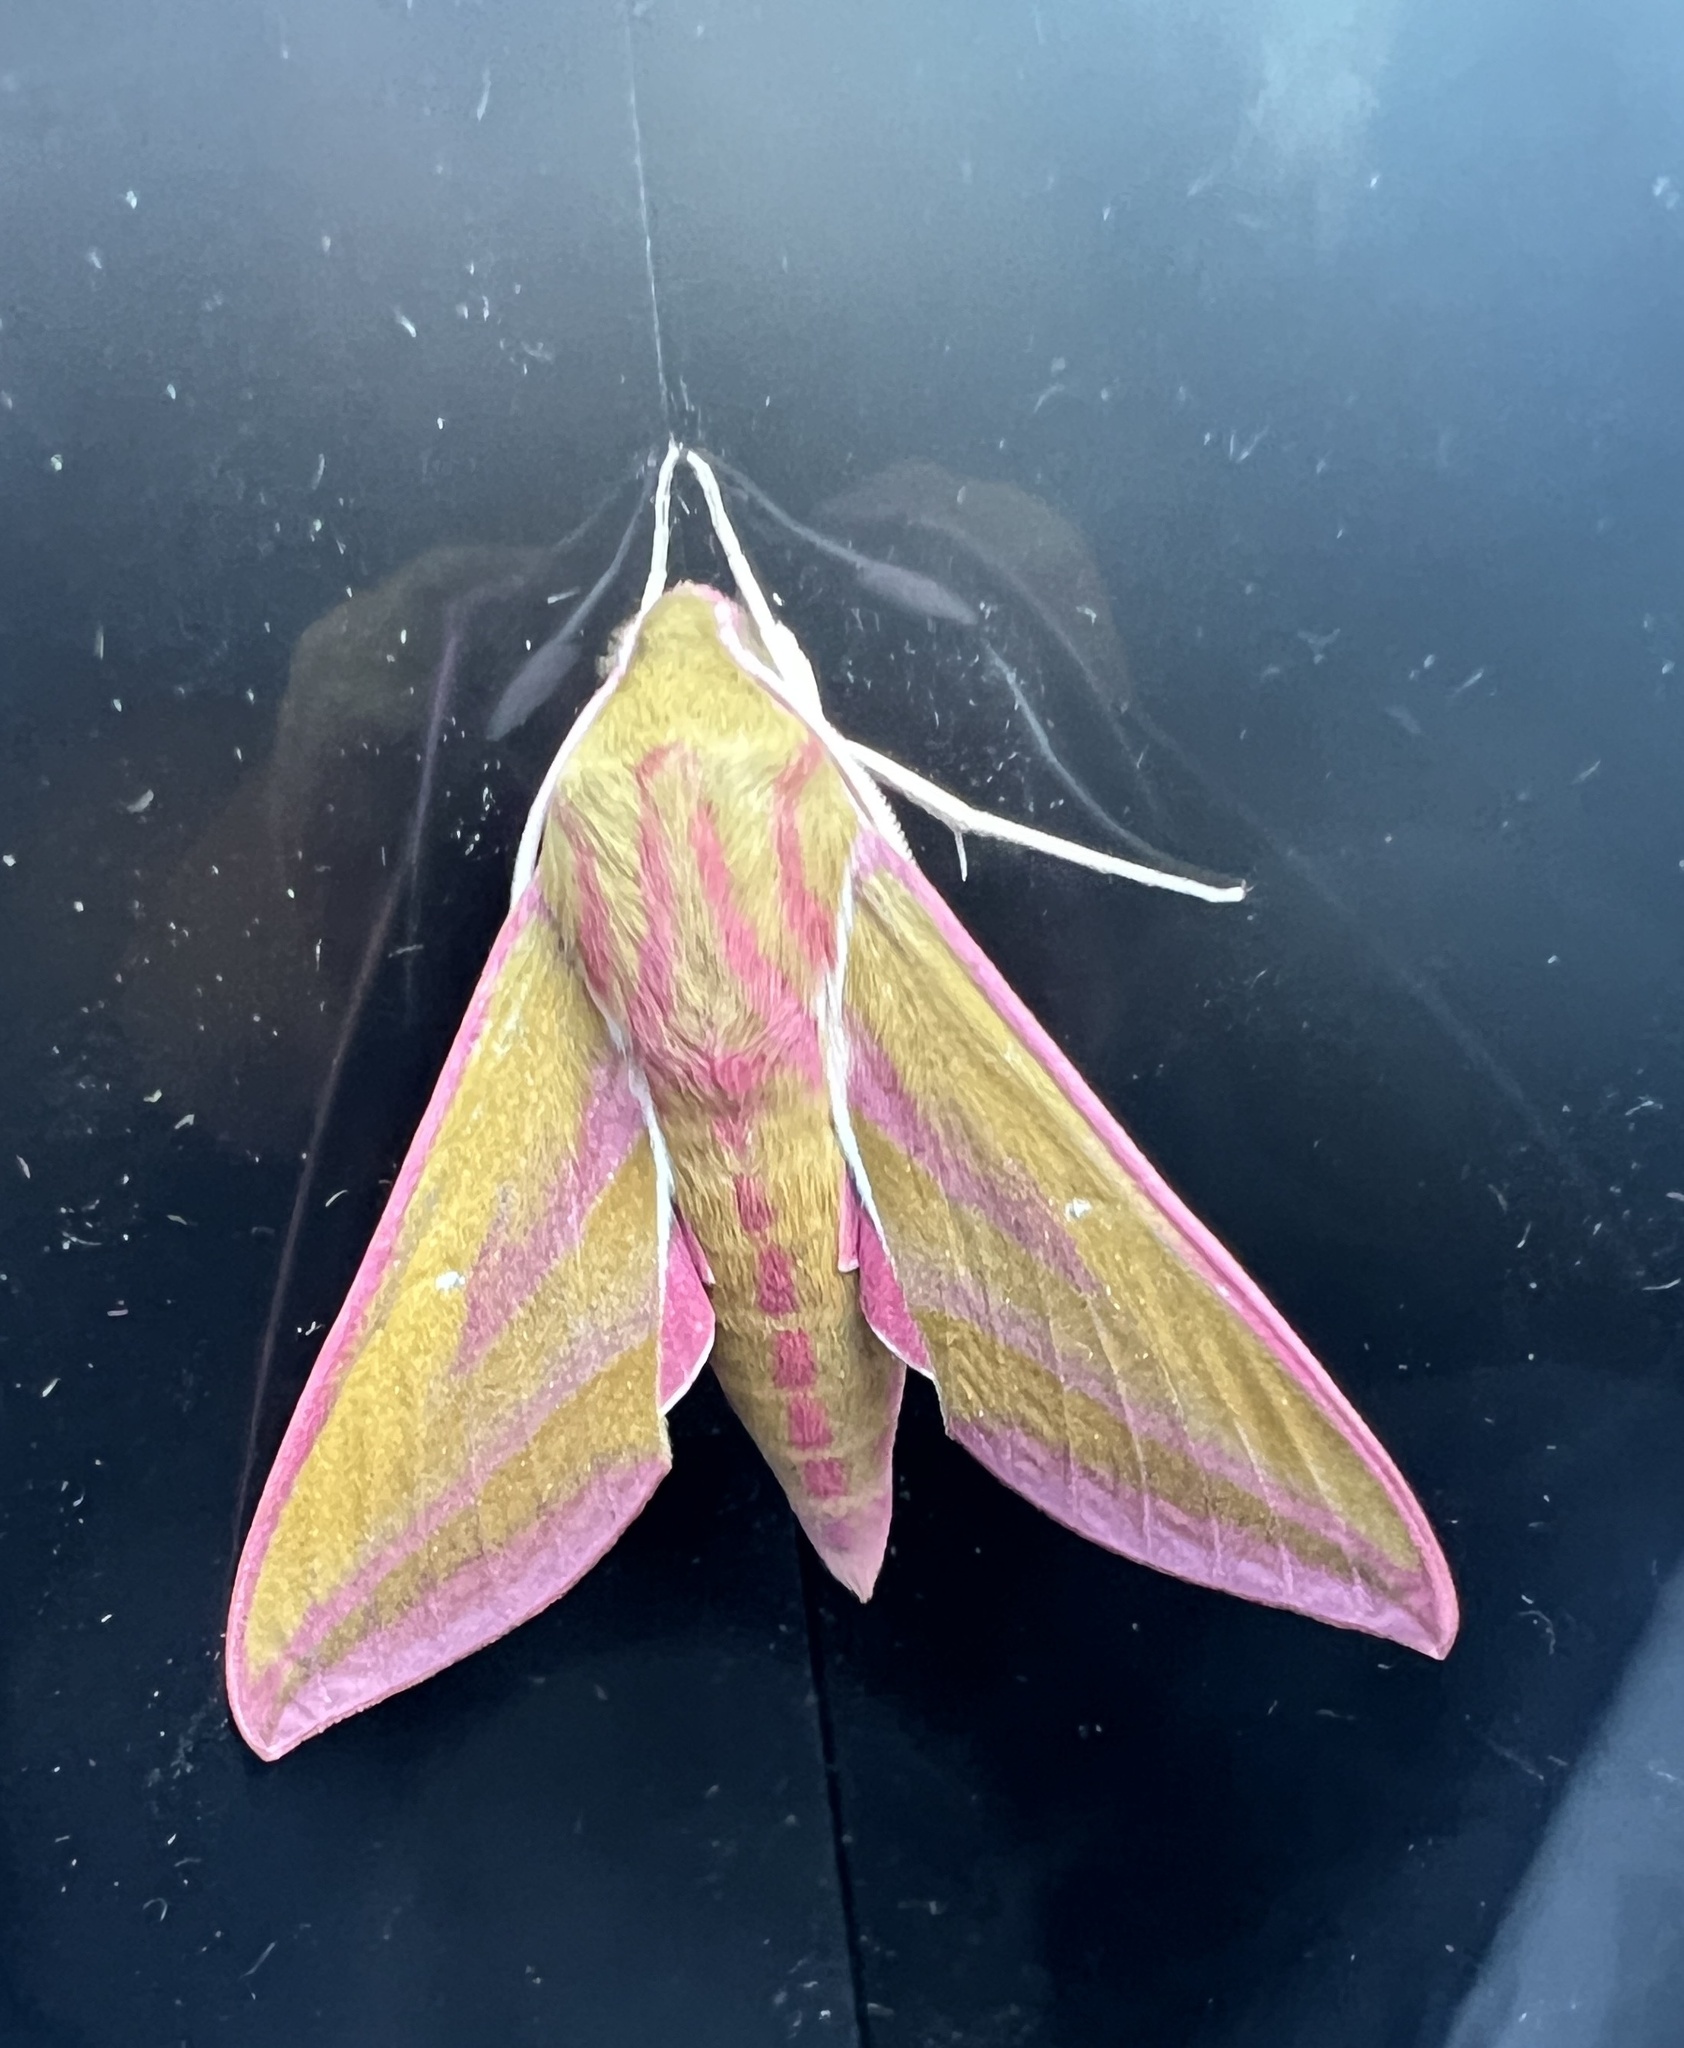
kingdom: Animalia
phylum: Arthropoda
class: Insecta
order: Lepidoptera
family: Sphingidae
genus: Deilephila
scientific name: Deilephila elpenor
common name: Elephant hawk-moth
